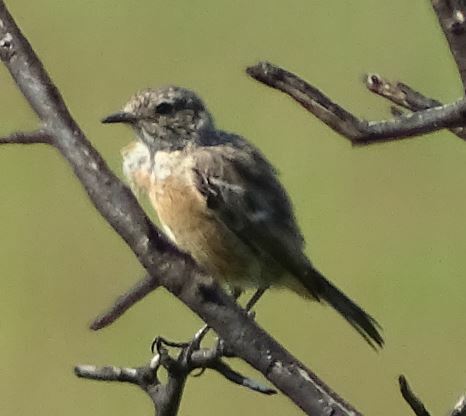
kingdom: Animalia
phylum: Chordata
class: Aves
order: Passeriformes
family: Muscicapidae
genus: Saxicola
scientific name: Saxicola rubicola
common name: European stonechat
